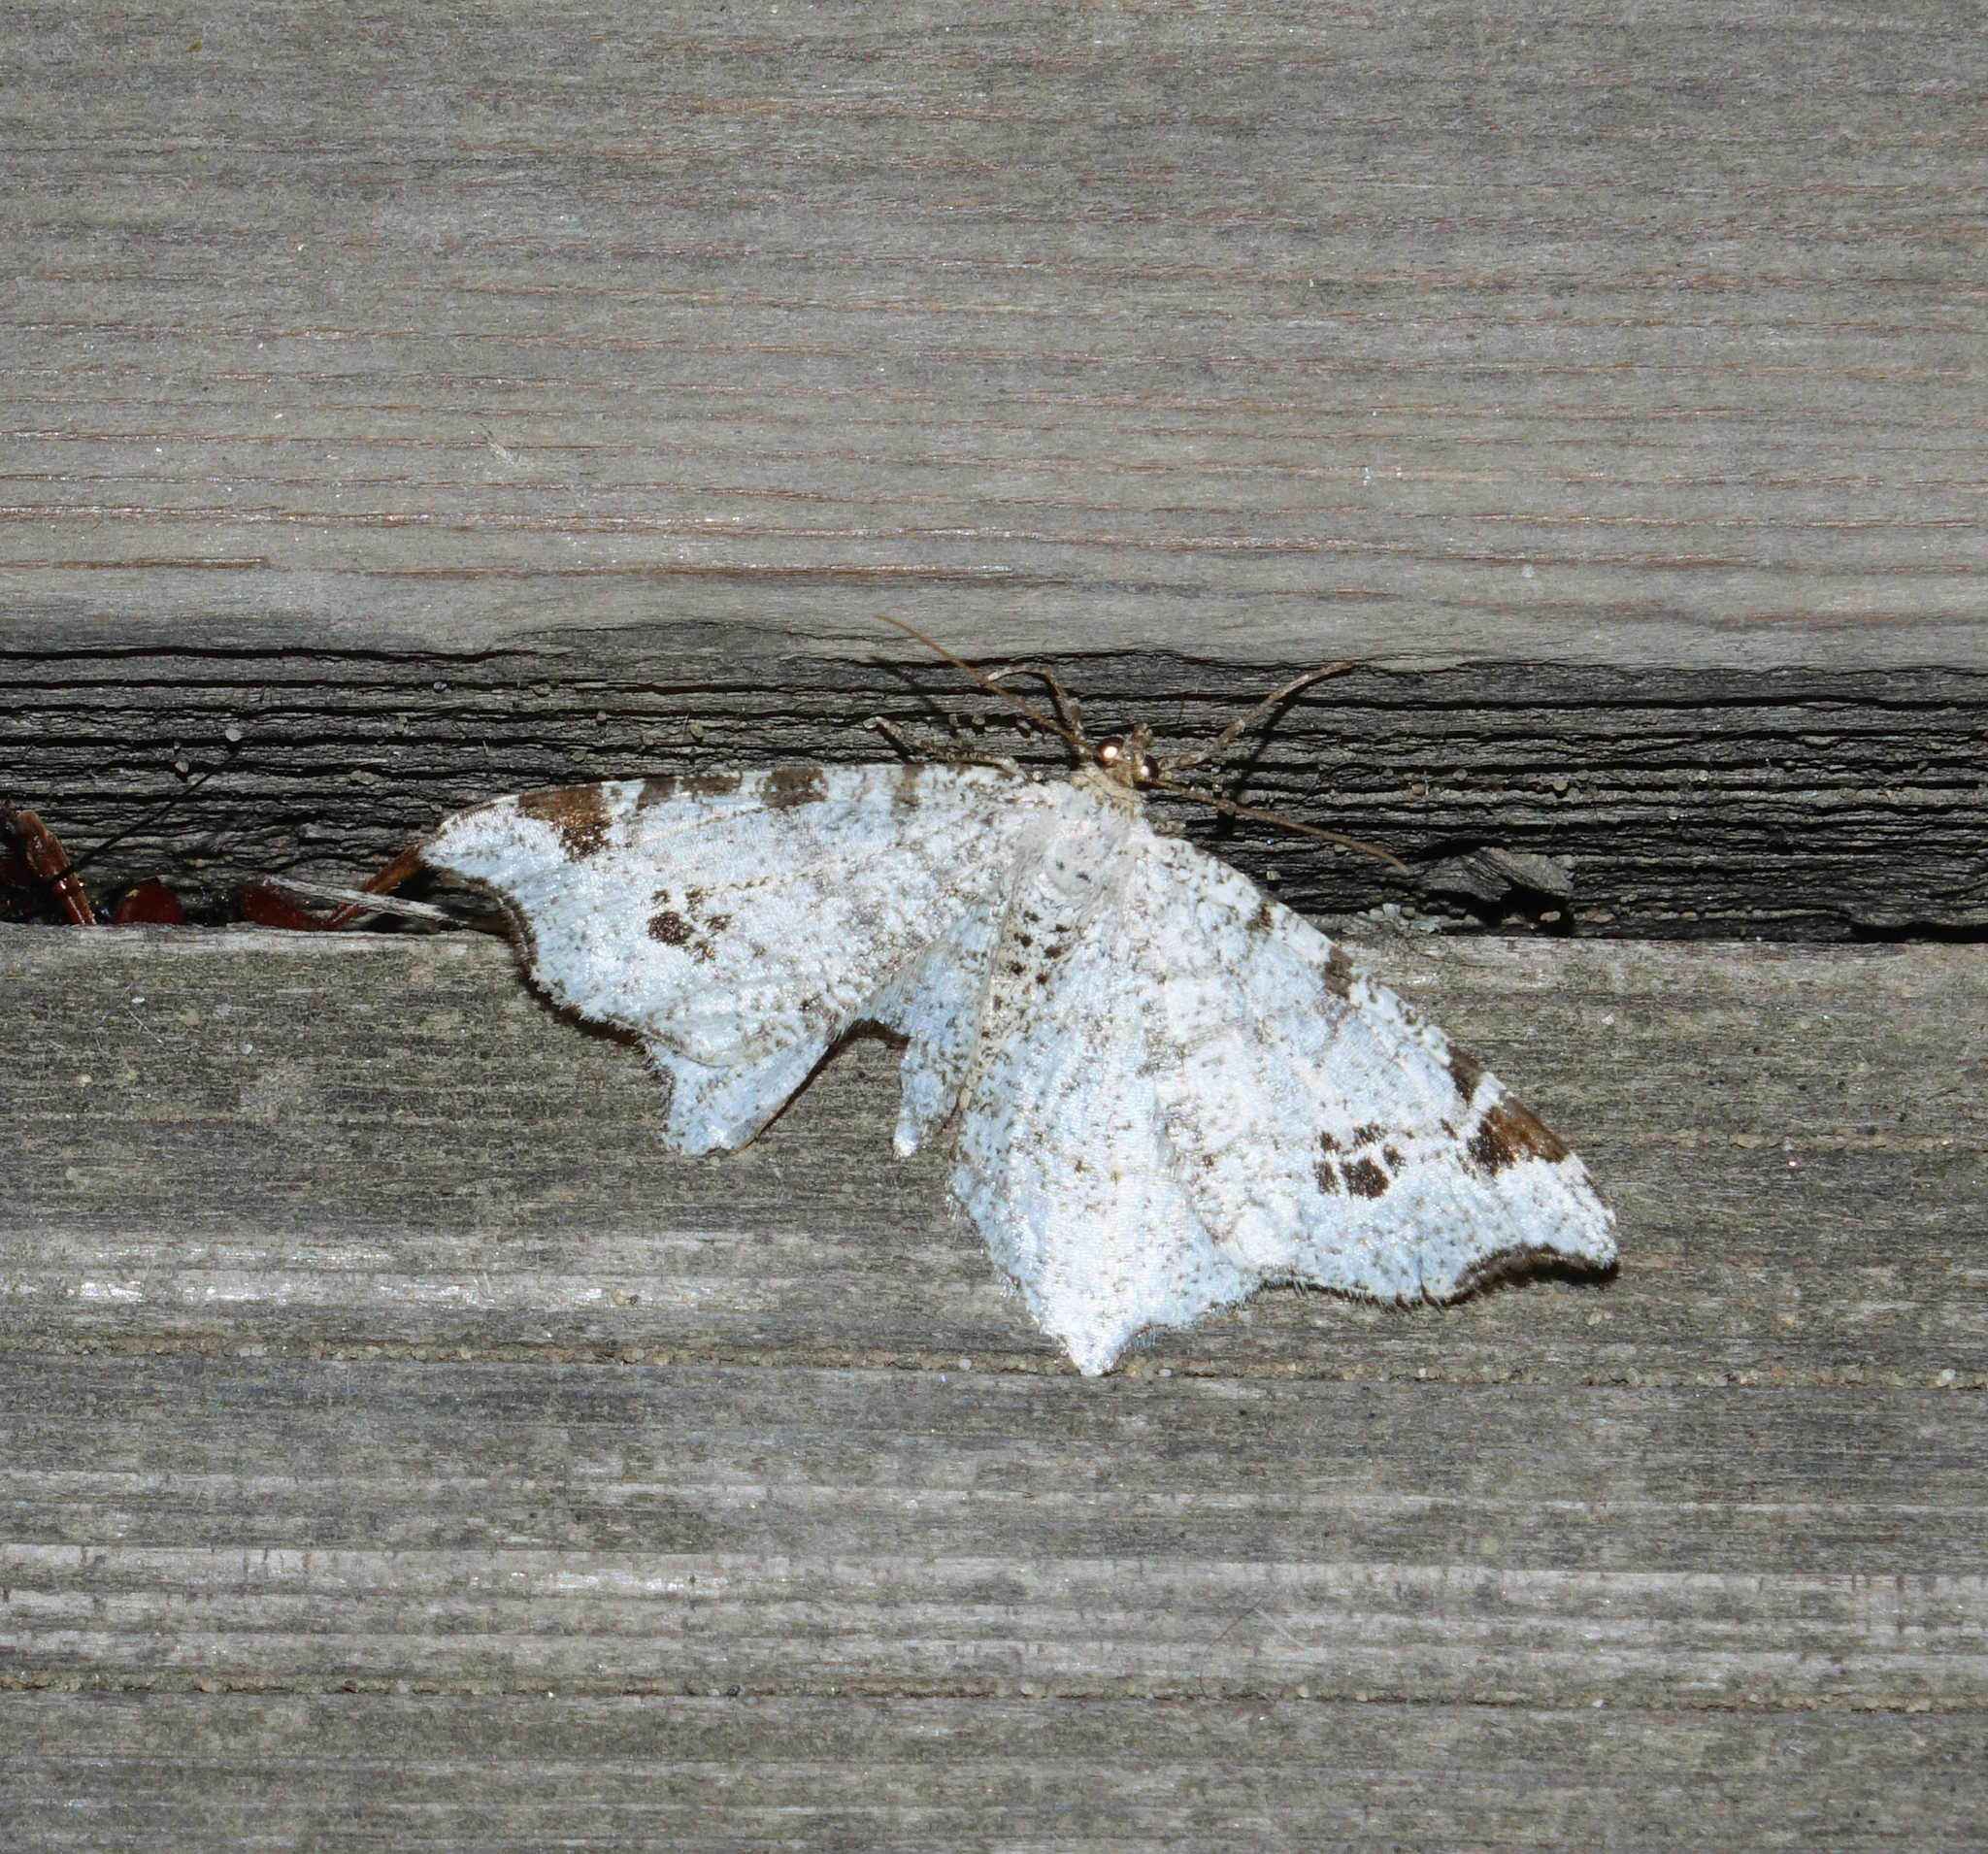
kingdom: Animalia
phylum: Arthropoda
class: Insecta
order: Lepidoptera
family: Geometridae
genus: Macaria
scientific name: Macaria notata
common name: Peacock moth
